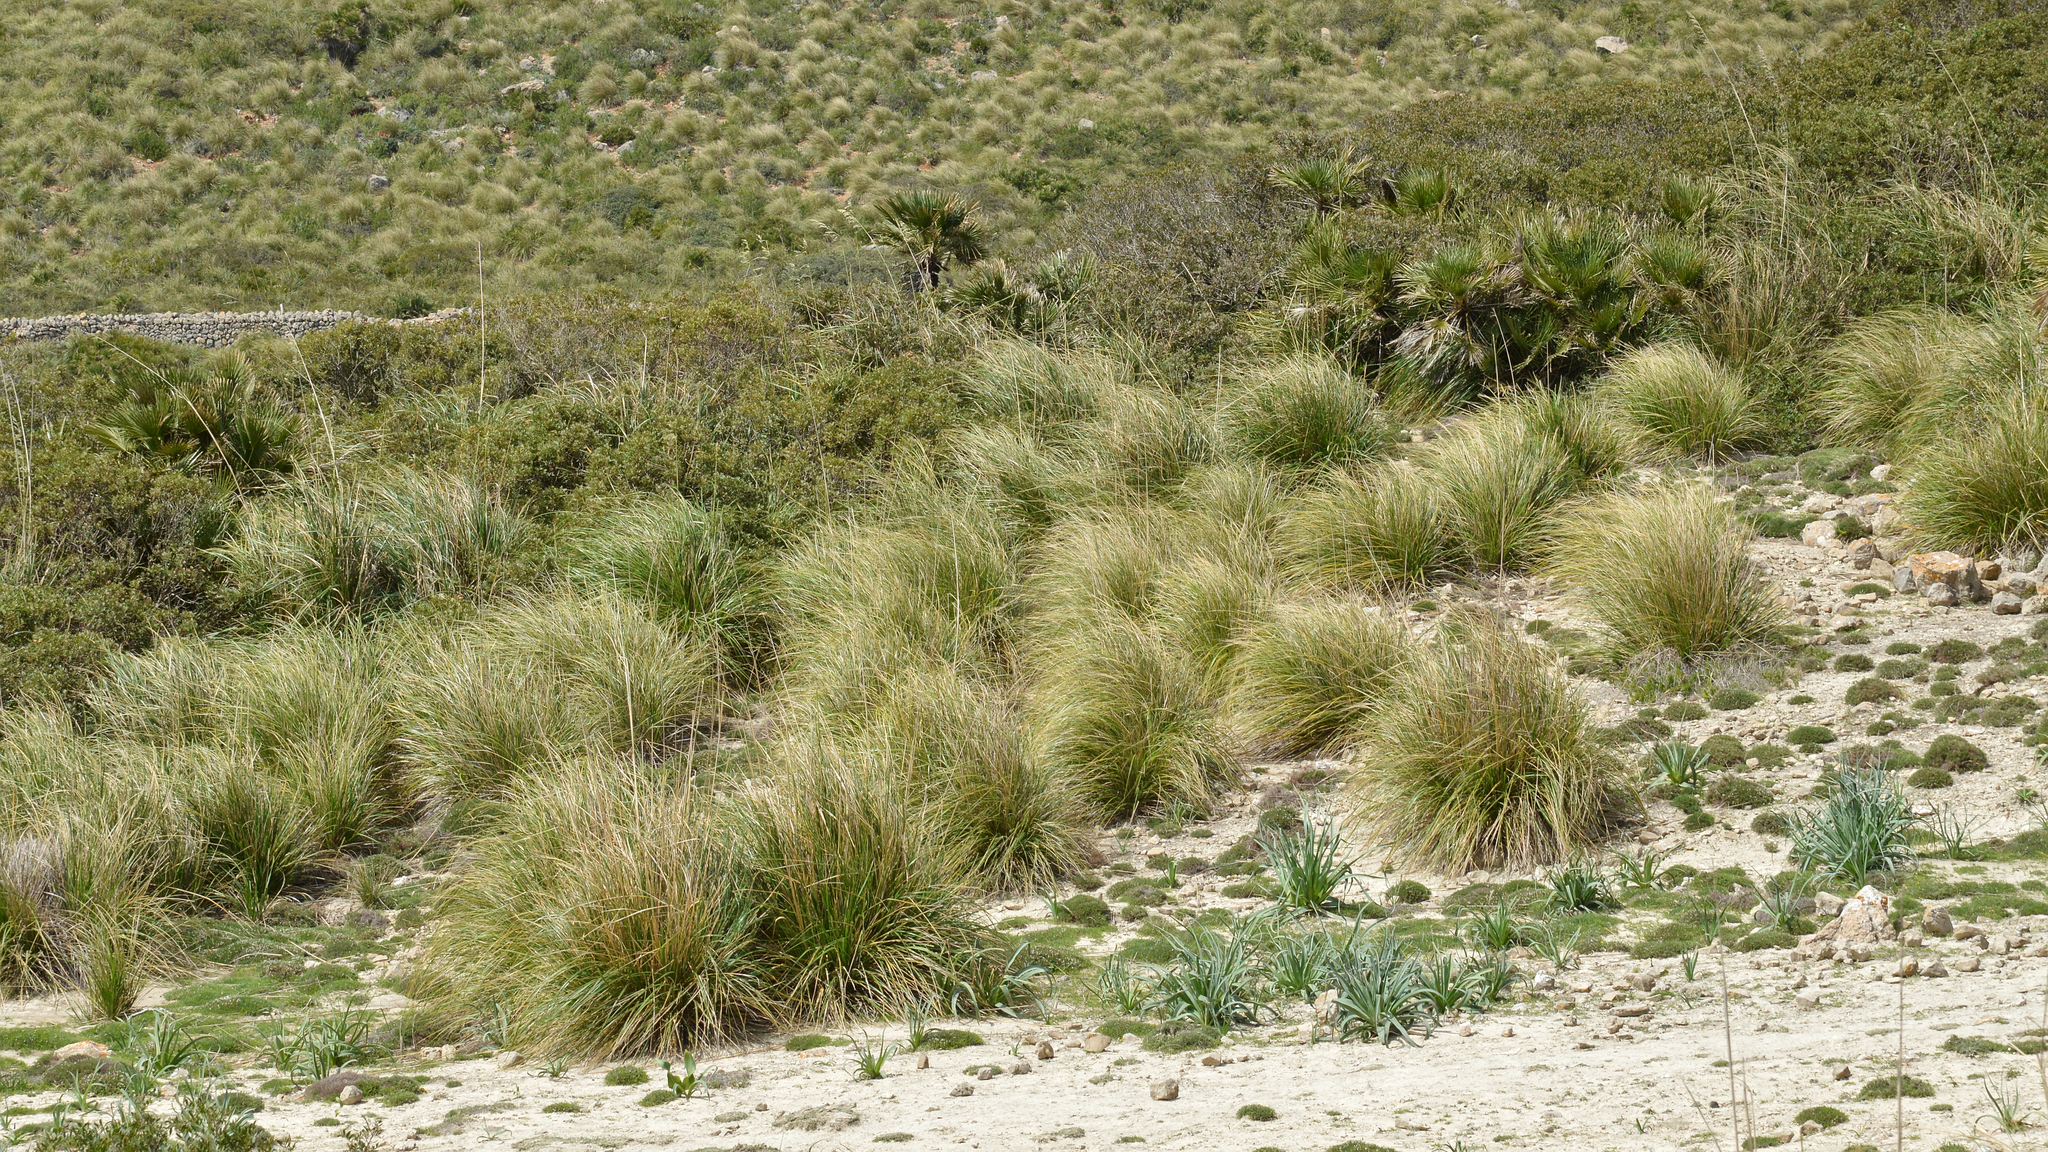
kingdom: Plantae
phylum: Tracheophyta
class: Liliopsida
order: Poales
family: Poaceae
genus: Ampelodesmos
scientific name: Ampelodesmos mauritanicus
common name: Mauritanian grass
